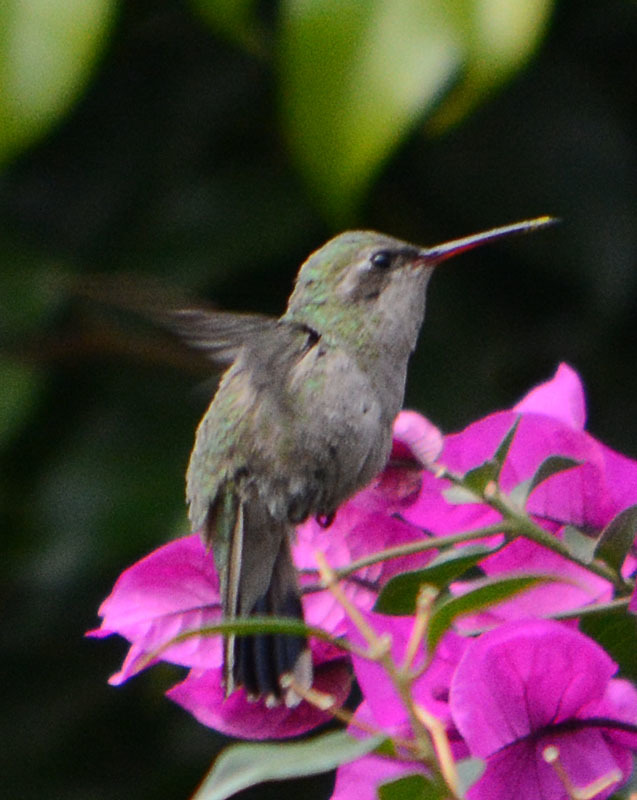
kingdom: Animalia
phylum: Chordata
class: Aves
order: Apodiformes
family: Trochilidae
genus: Cynanthus
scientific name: Cynanthus latirostris
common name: Broad-billed hummingbird
